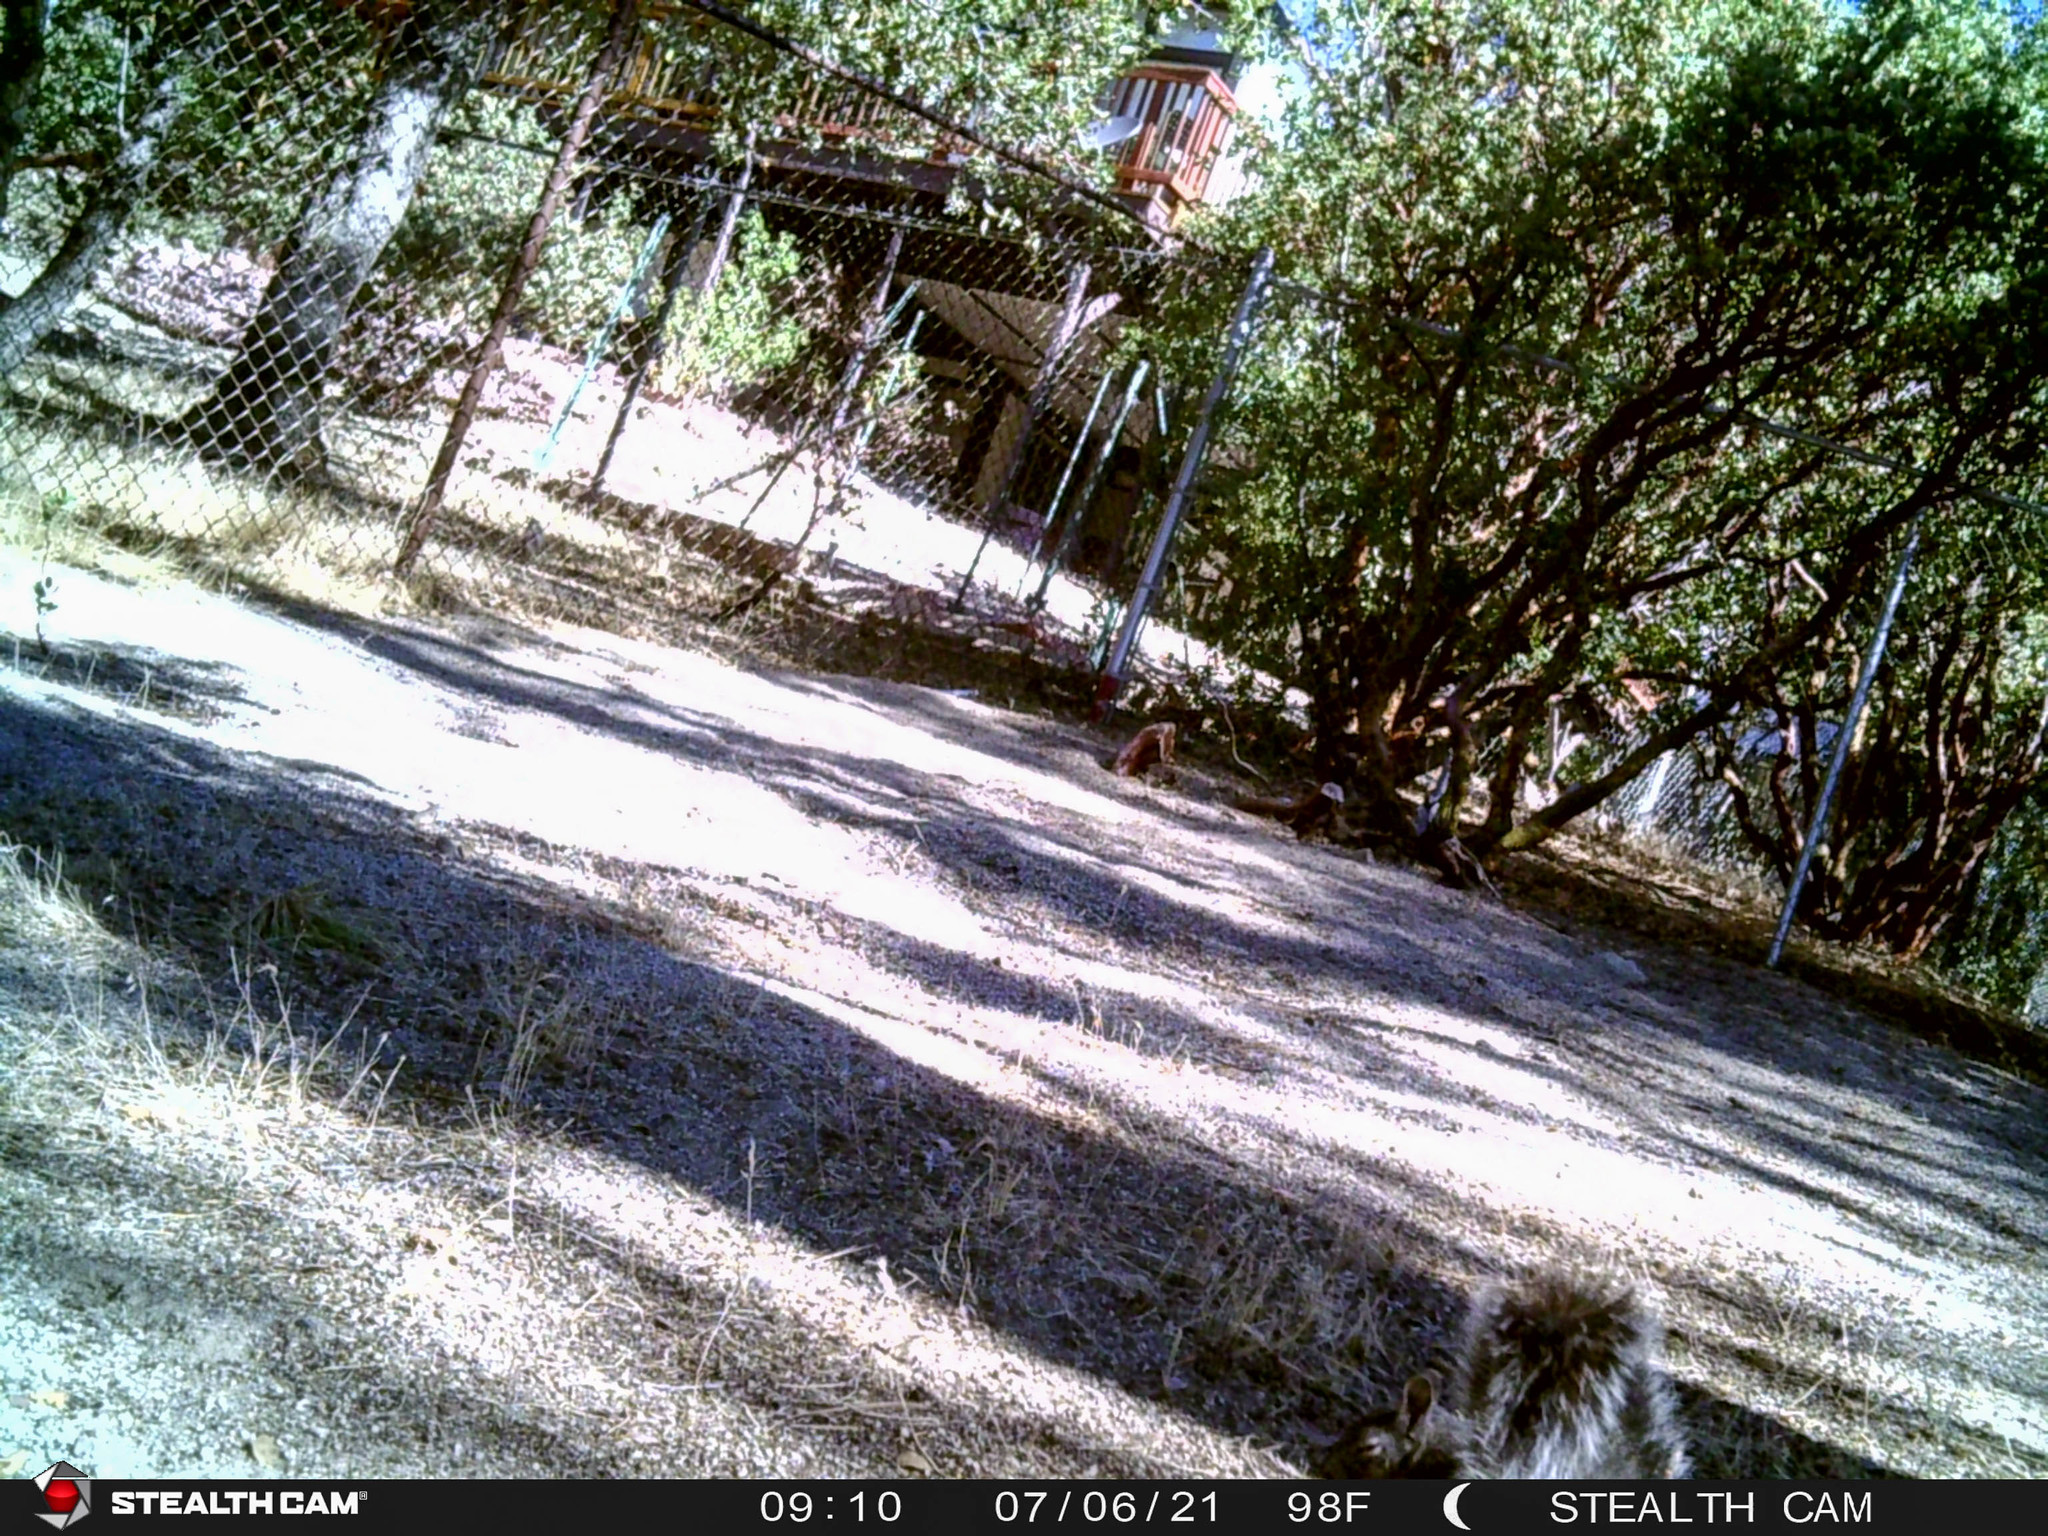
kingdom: Animalia
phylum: Chordata
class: Mammalia
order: Rodentia
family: Sciuridae
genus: Sciurus
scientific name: Sciurus griseus
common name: Western gray squirrel
